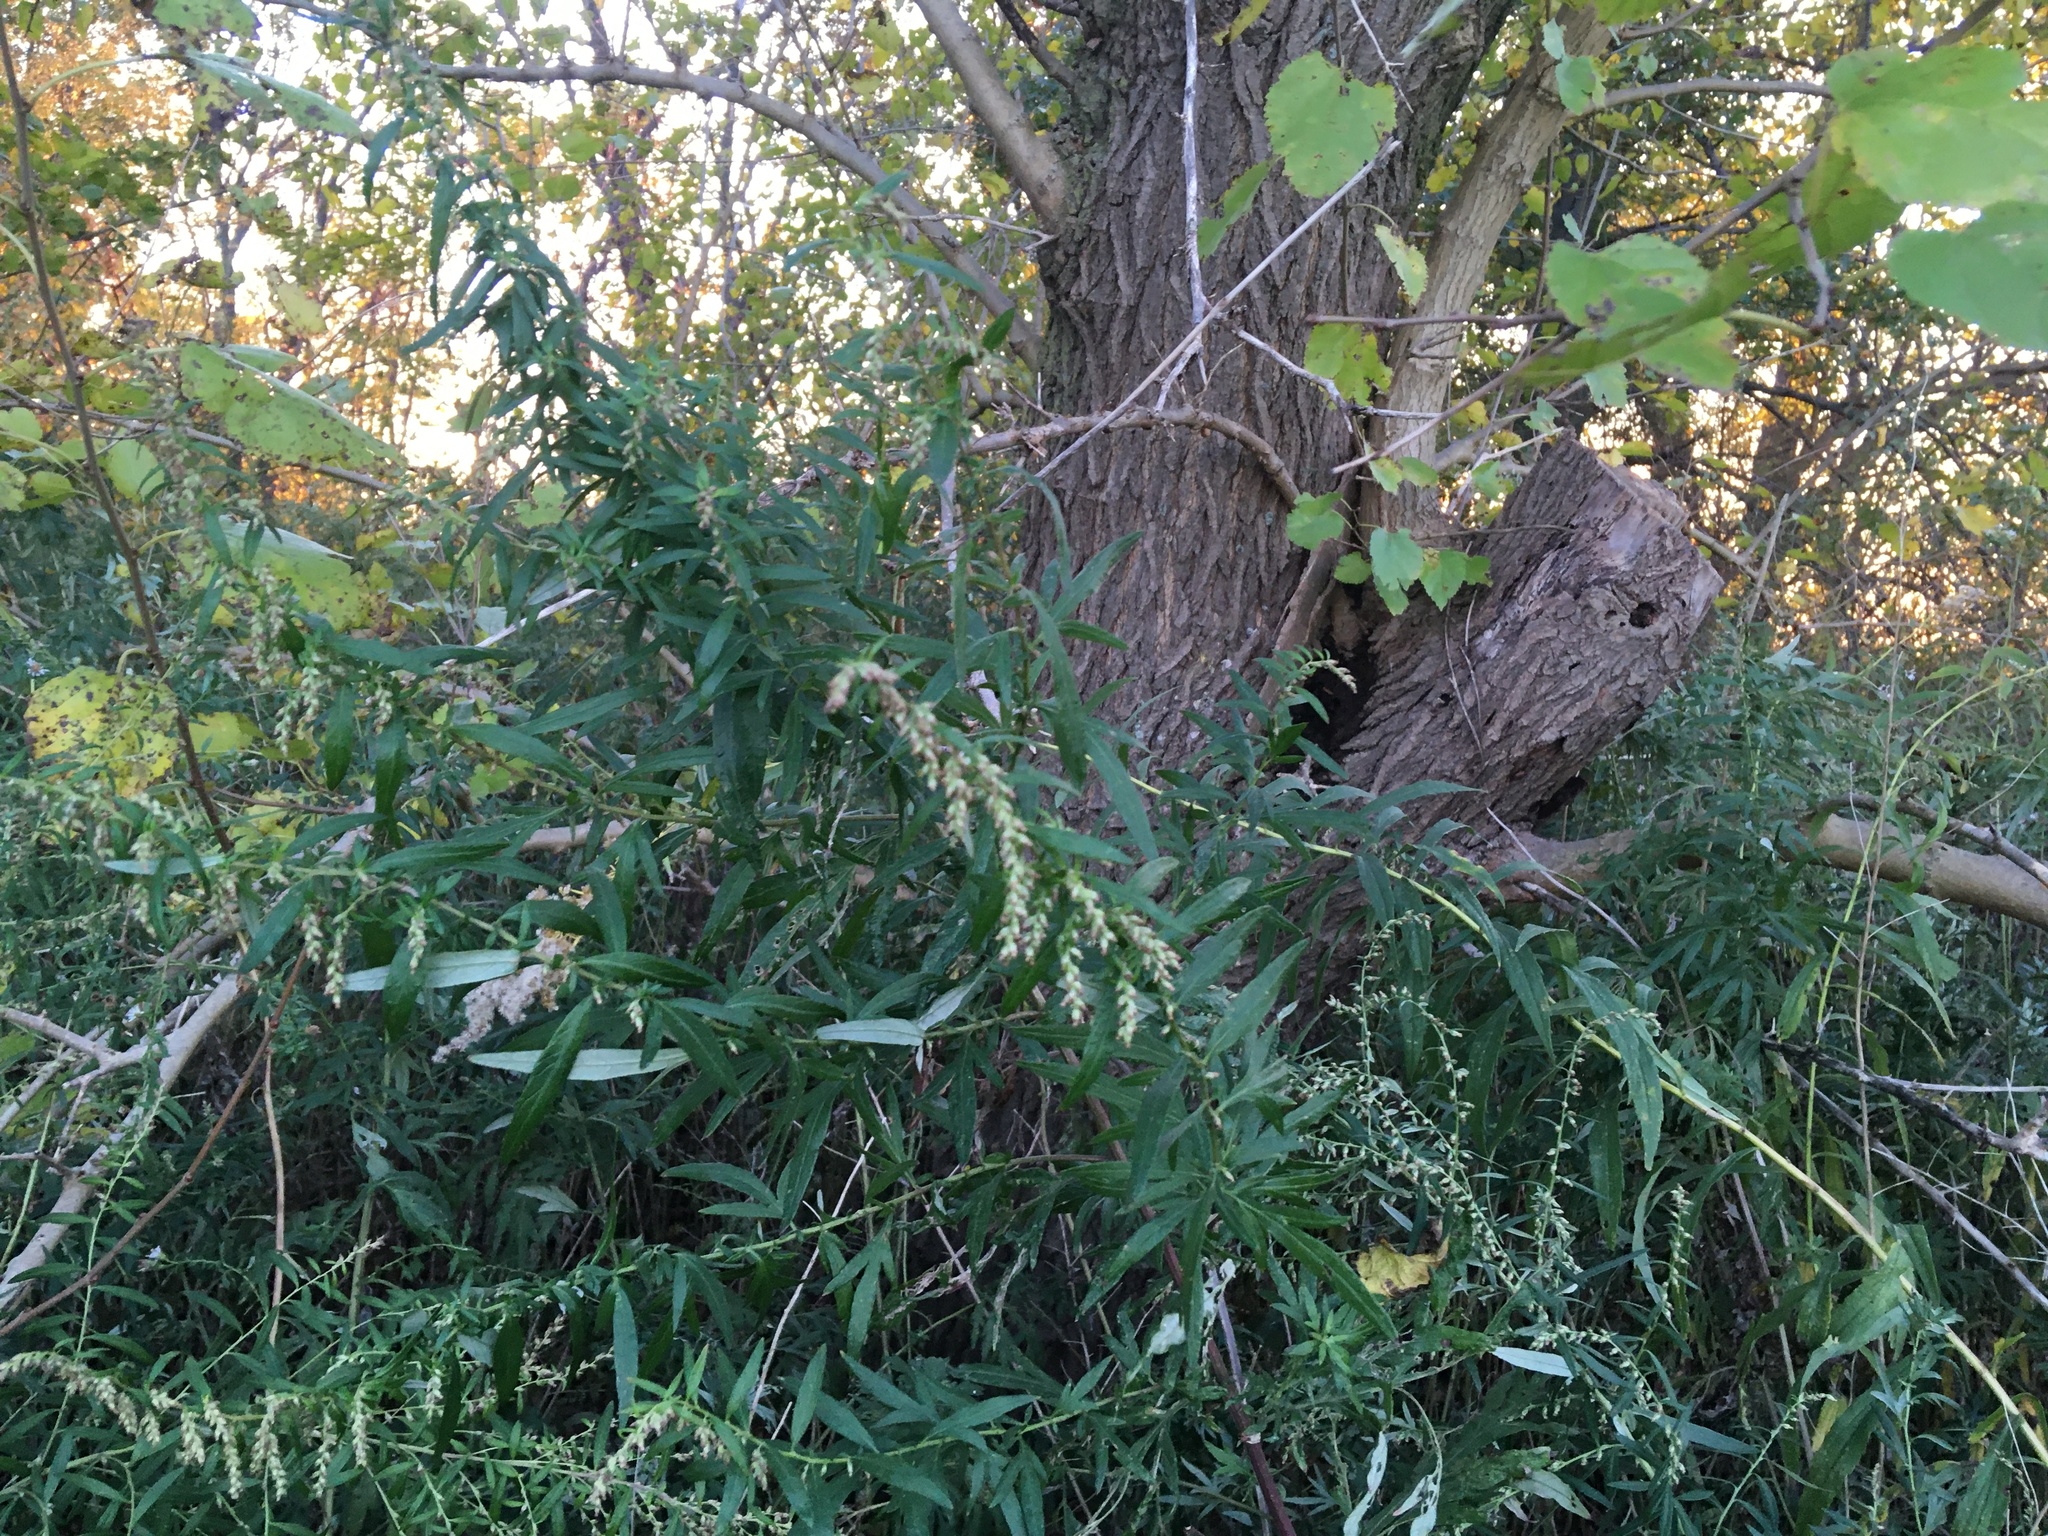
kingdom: Plantae
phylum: Tracheophyta
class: Magnoliopsida
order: Asterales
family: Asteraceae
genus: Artemisia
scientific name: Artemisia vulgaris
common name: Mugwort
